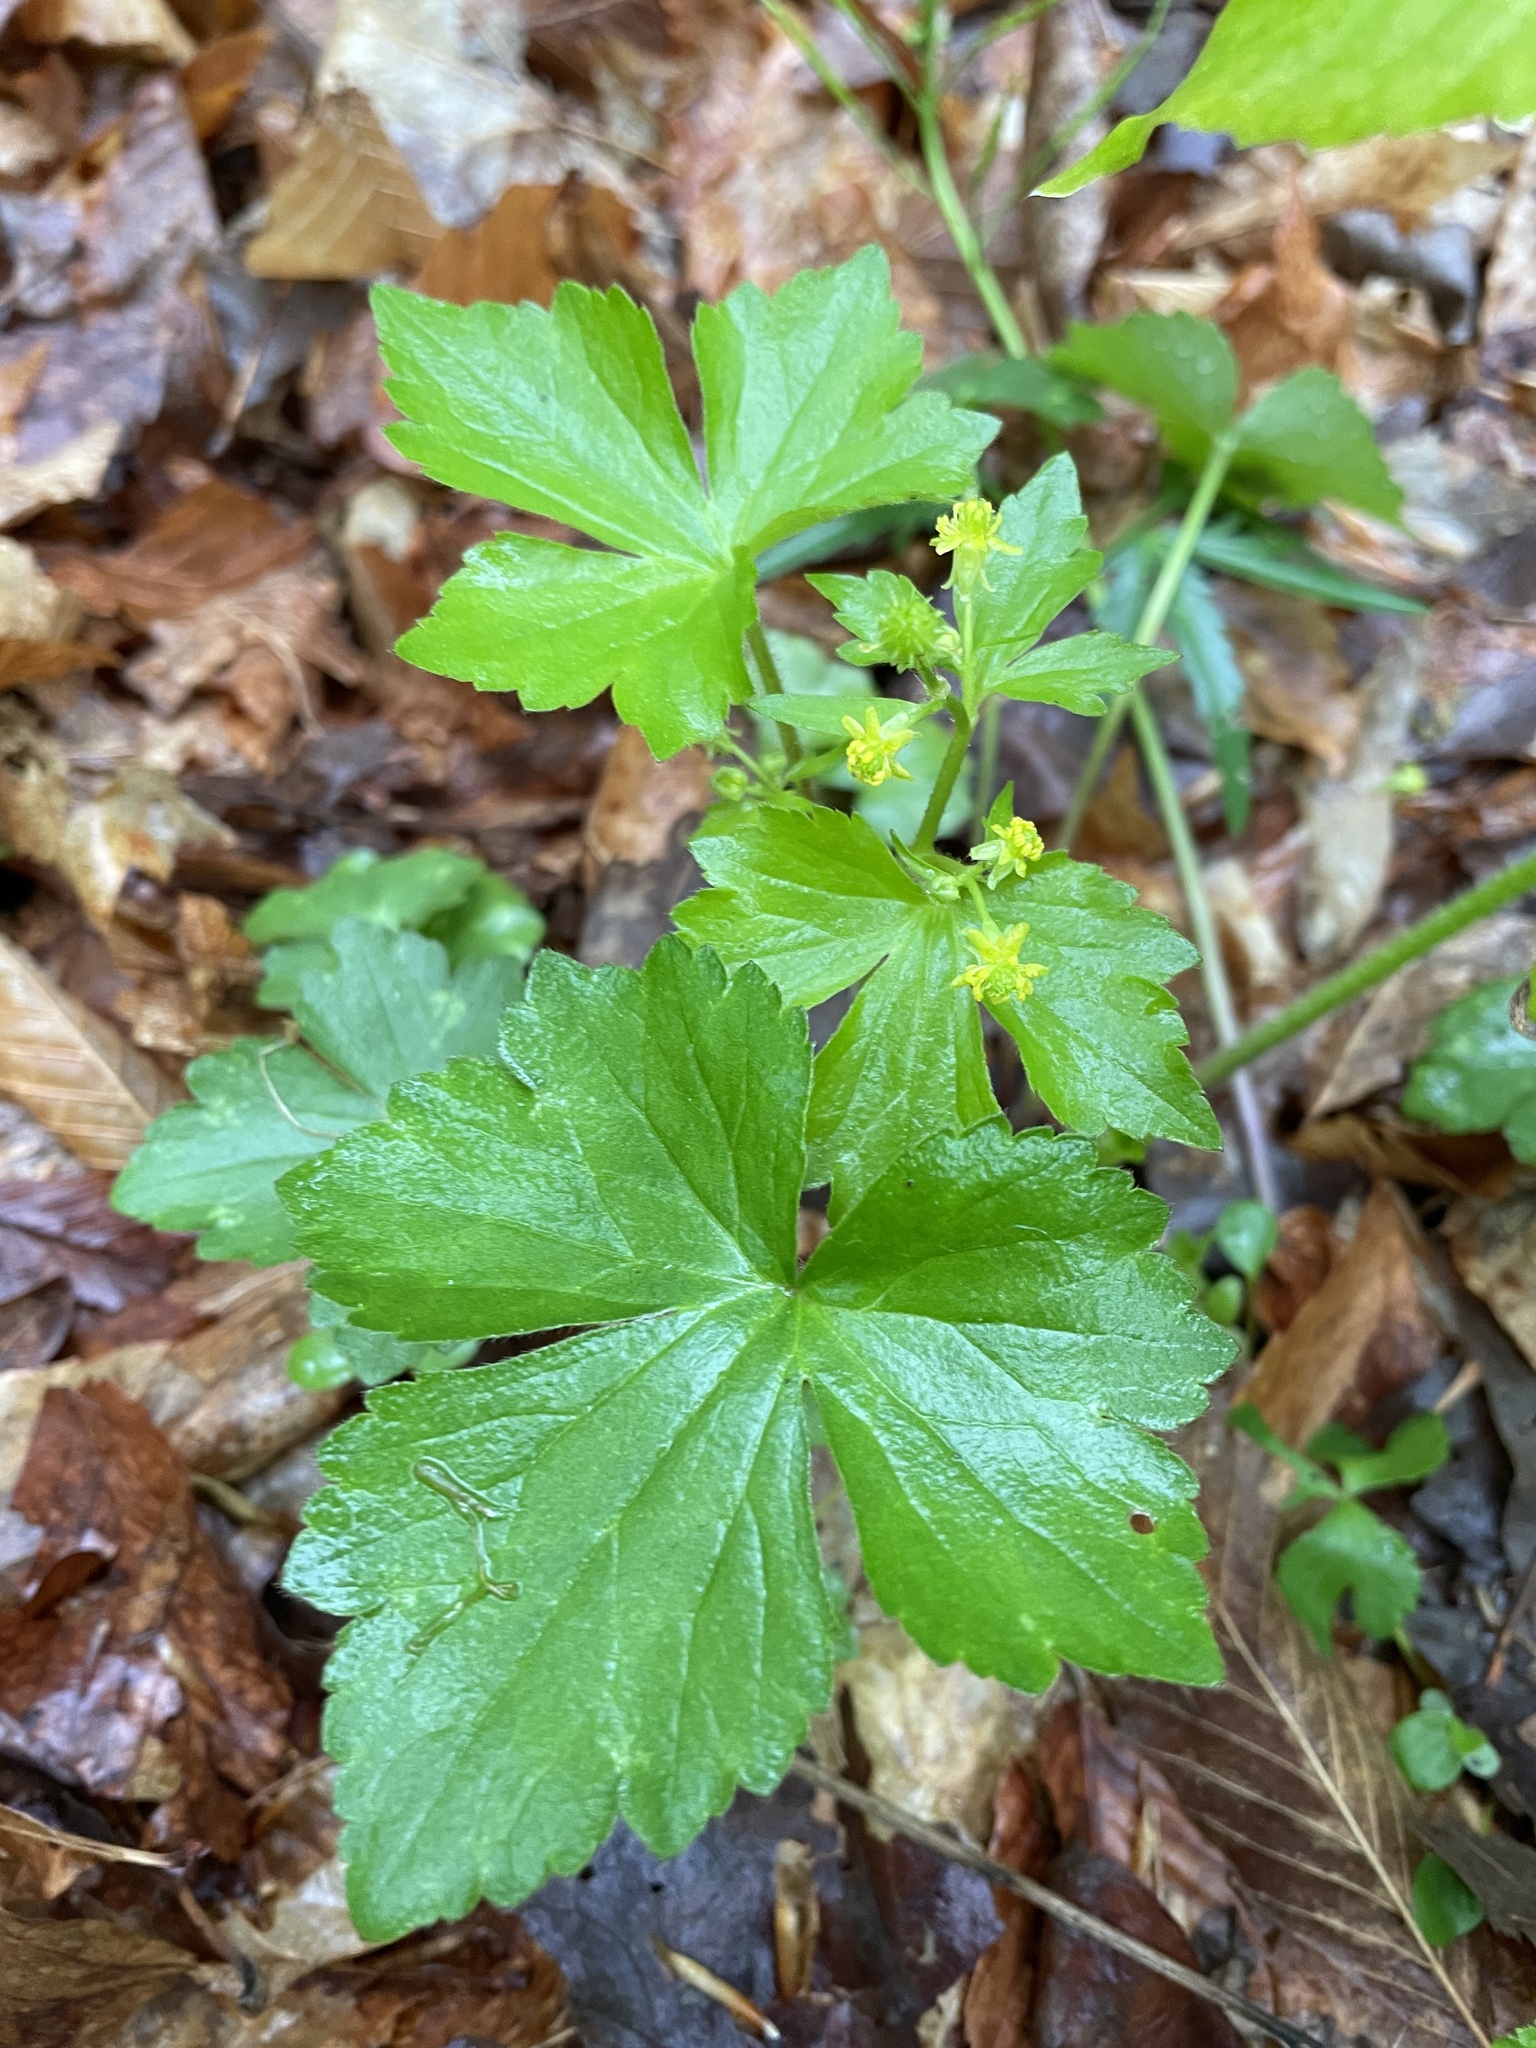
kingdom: Plantae
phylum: Tracheophyta
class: Magnoliopsida
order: Ranunculales
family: Ranunculaceae
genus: Ranunculus
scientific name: Ranunculus recurvatus
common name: Blisterwort
